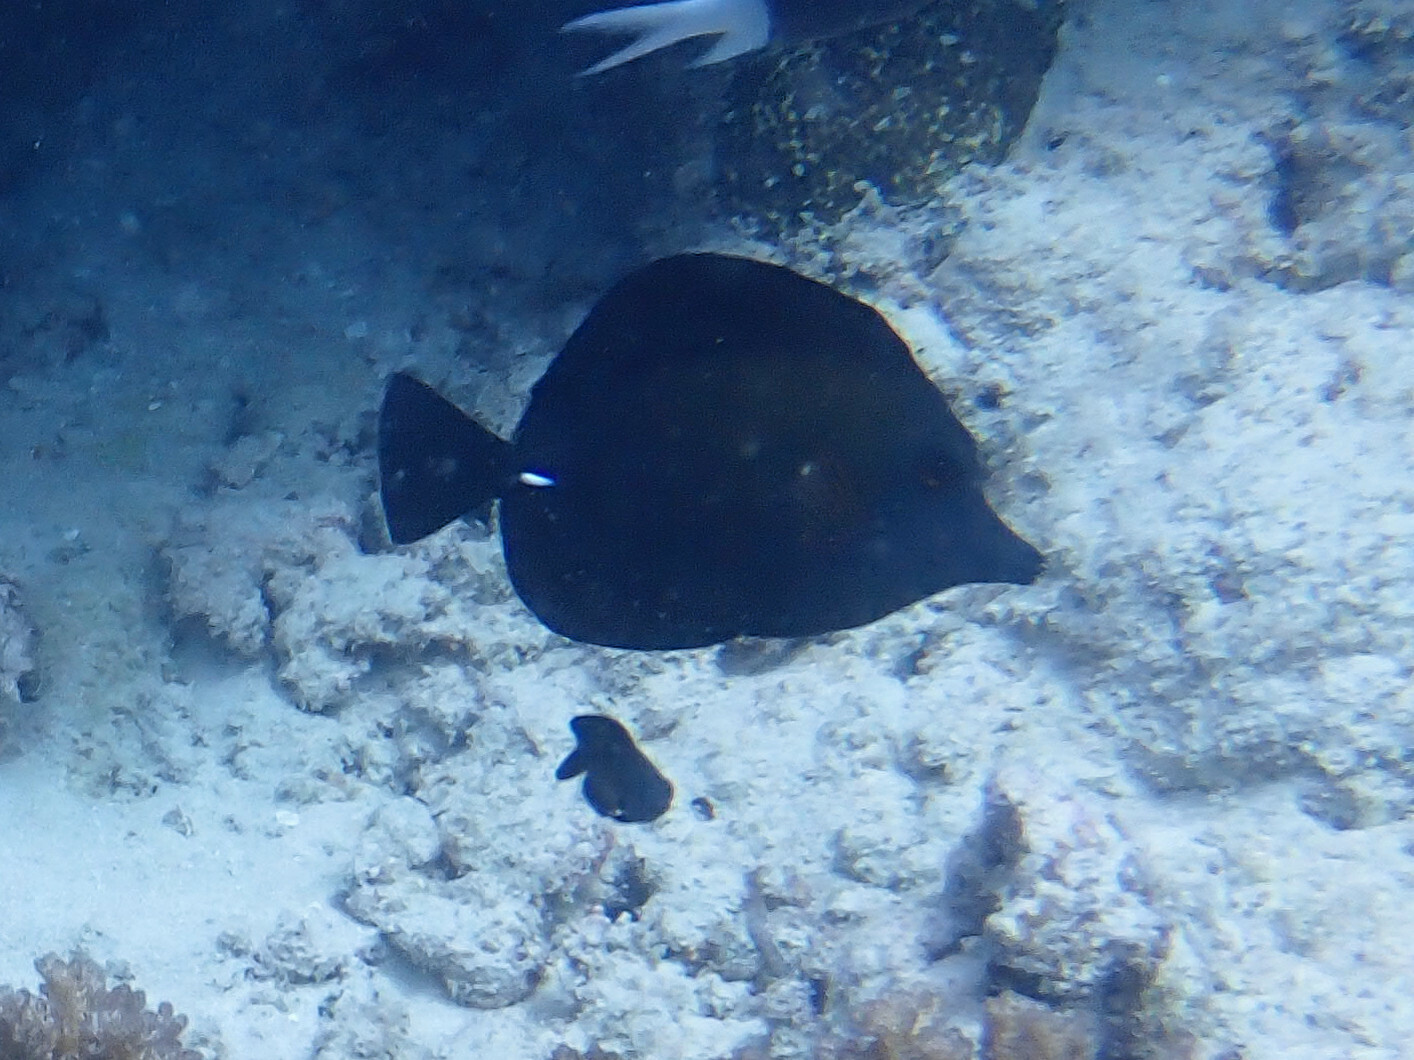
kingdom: Animalia
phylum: Chordata
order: Perciformes
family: Acanthuridae
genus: Zebrasoma
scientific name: Zebrasoma scopas
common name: Twotone tang
